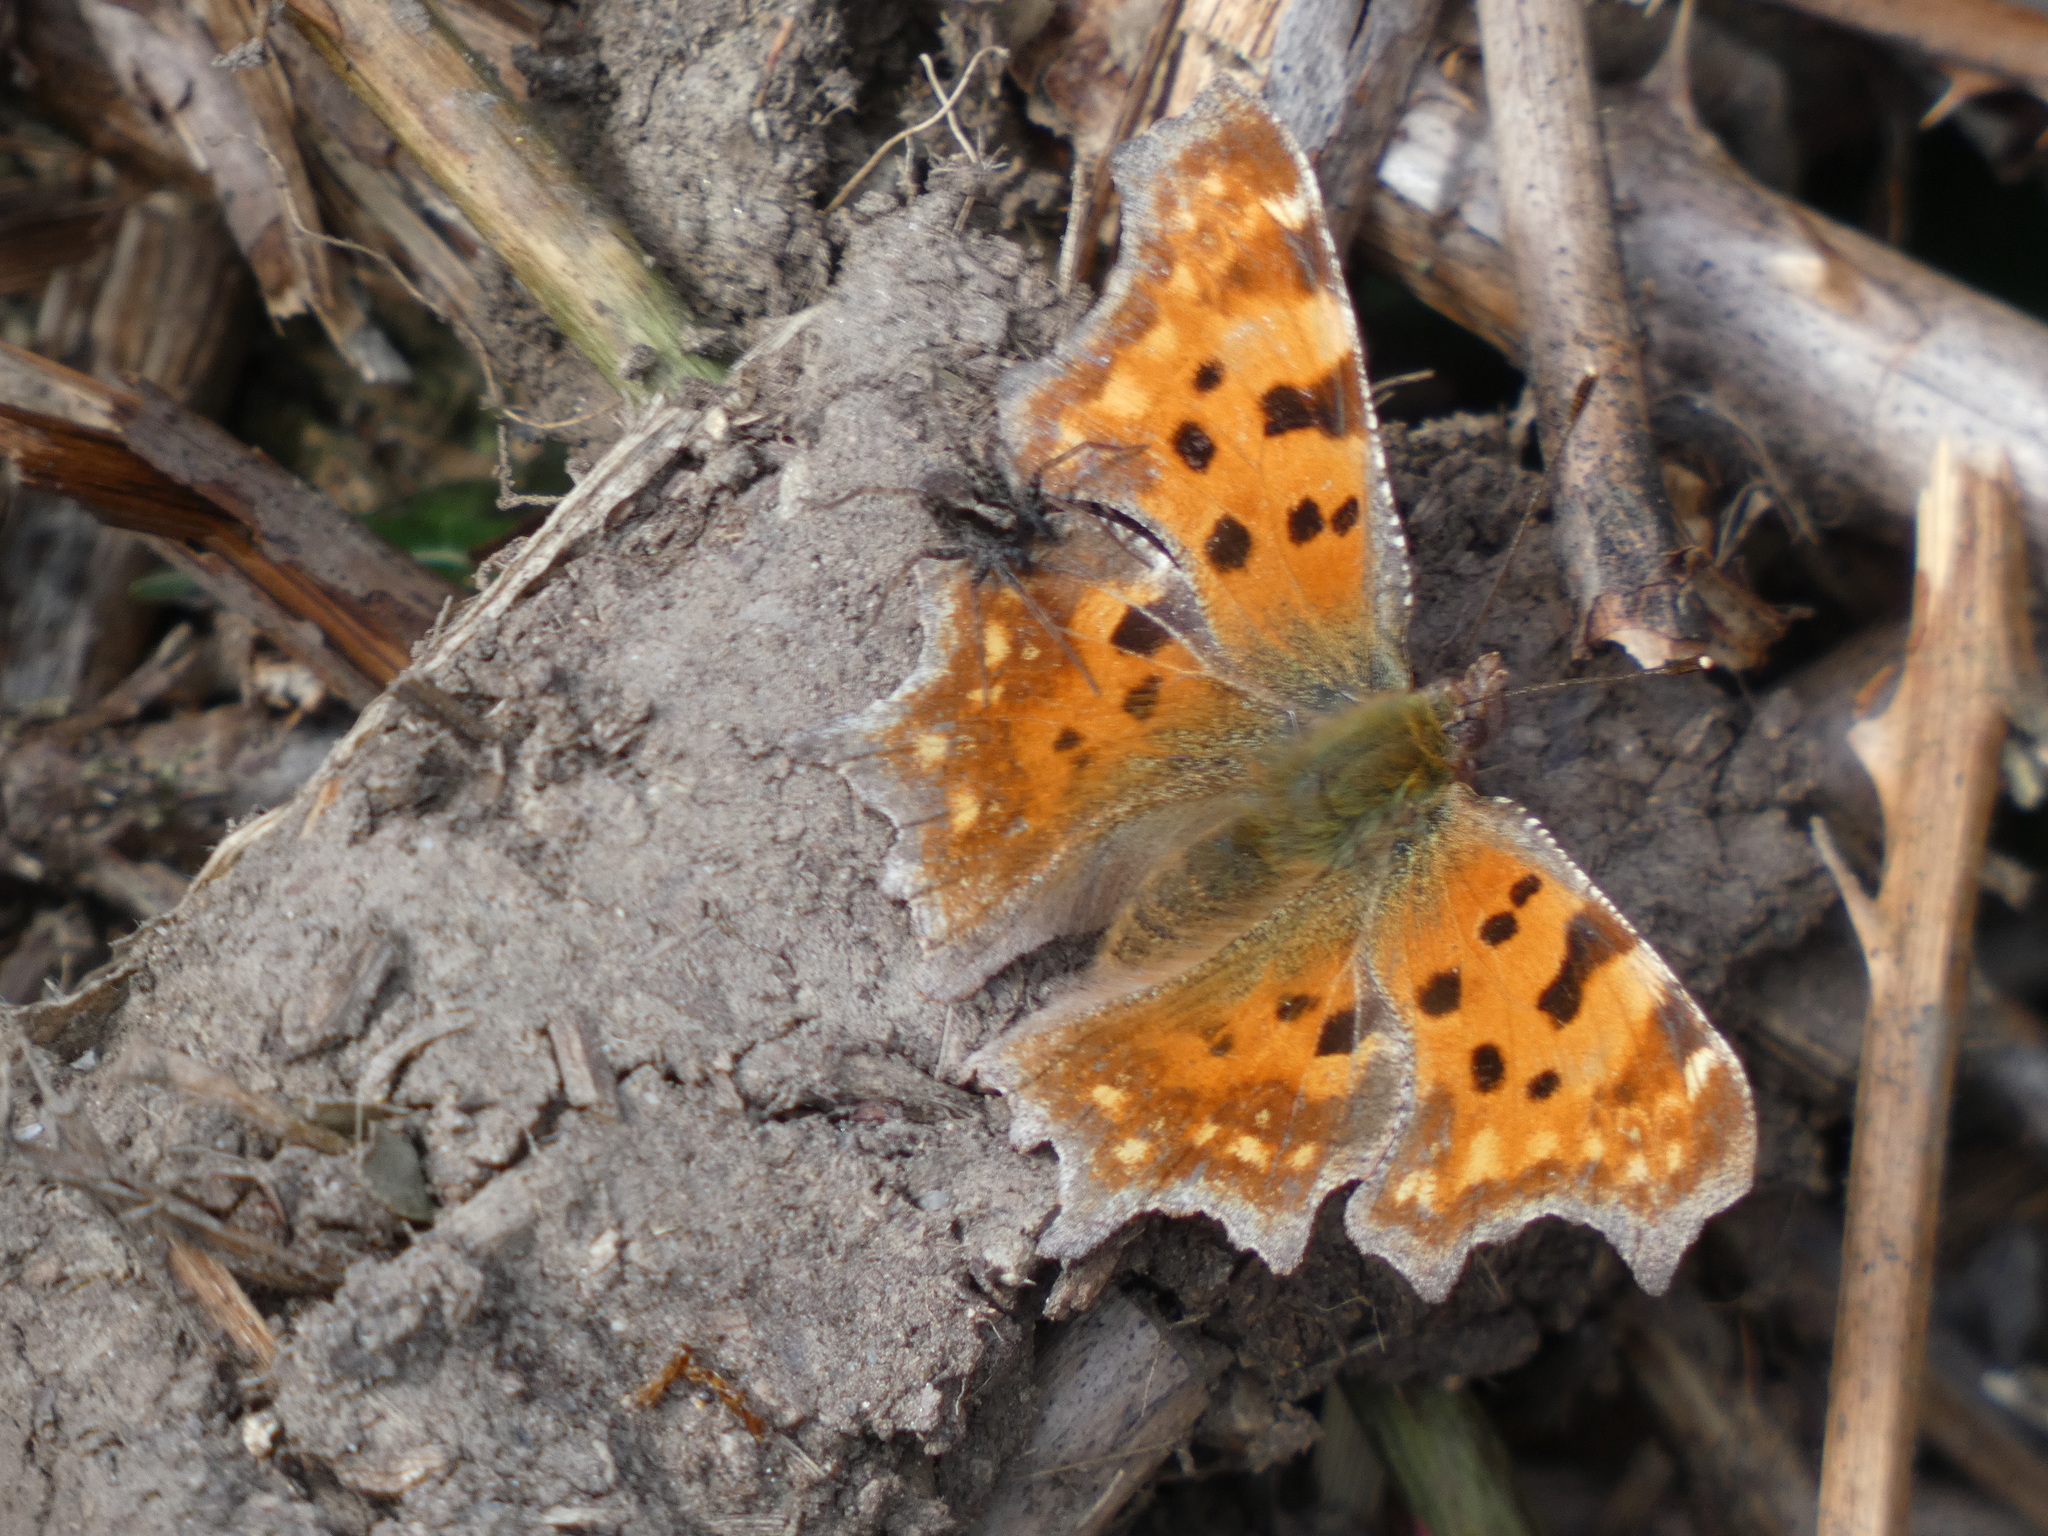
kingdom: Animalia
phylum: Arthropoda
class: Insecta
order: Lepidoptera
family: Nymphalidae
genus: Polygonia
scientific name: Polygonia c-album
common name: Comma
